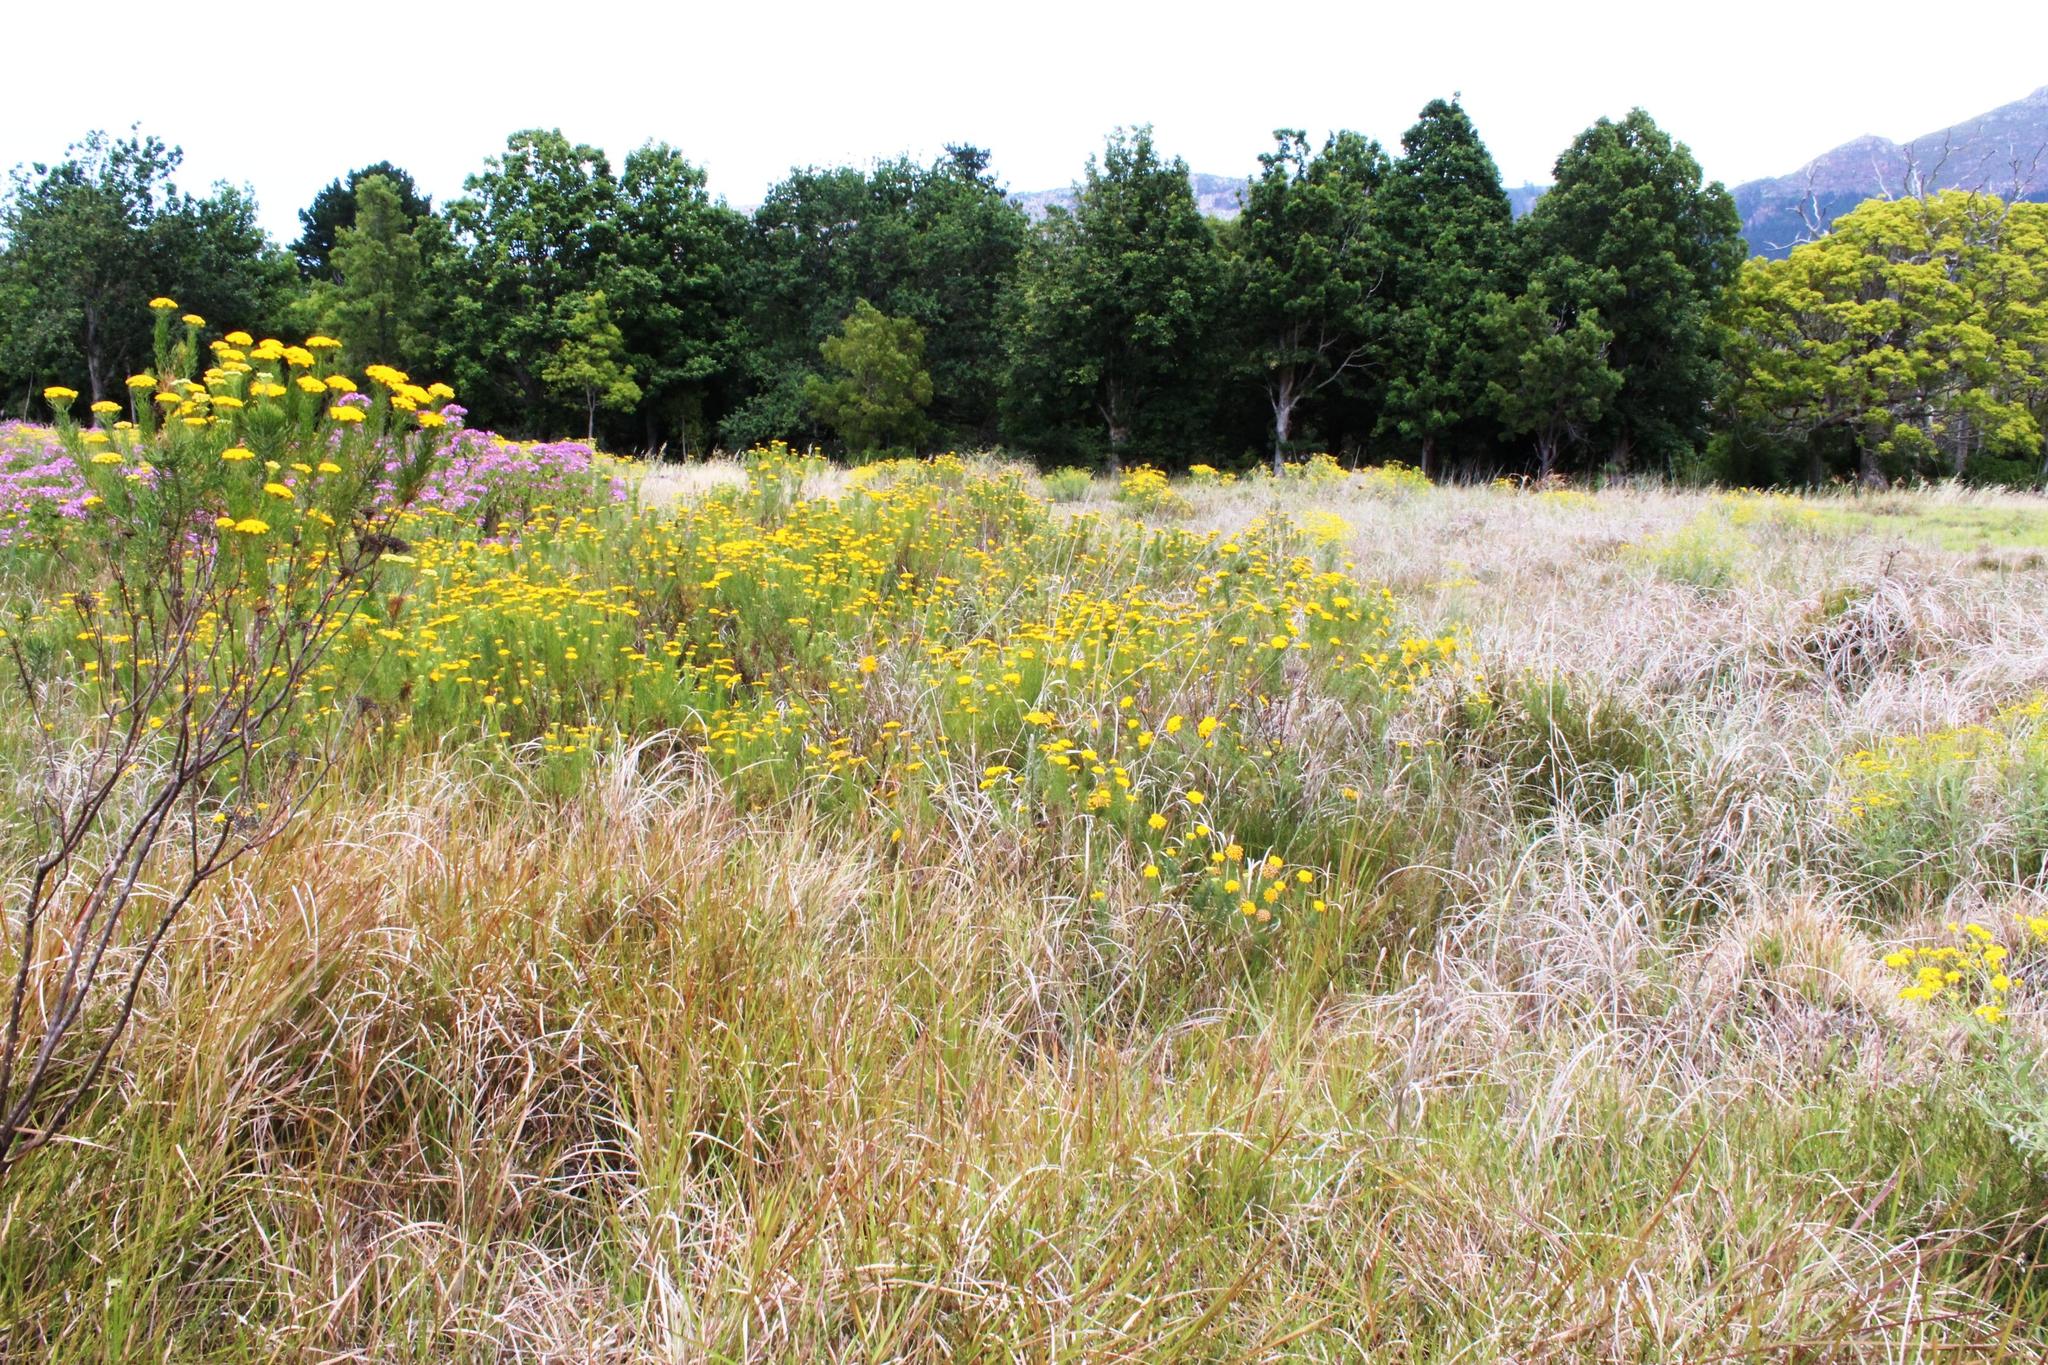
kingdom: Plantae
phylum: Tracheophyta
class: Magnoliopsida
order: Asterales
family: Asteraceae
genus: Hymenolepis
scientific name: Hymenolepis crithmifolia
